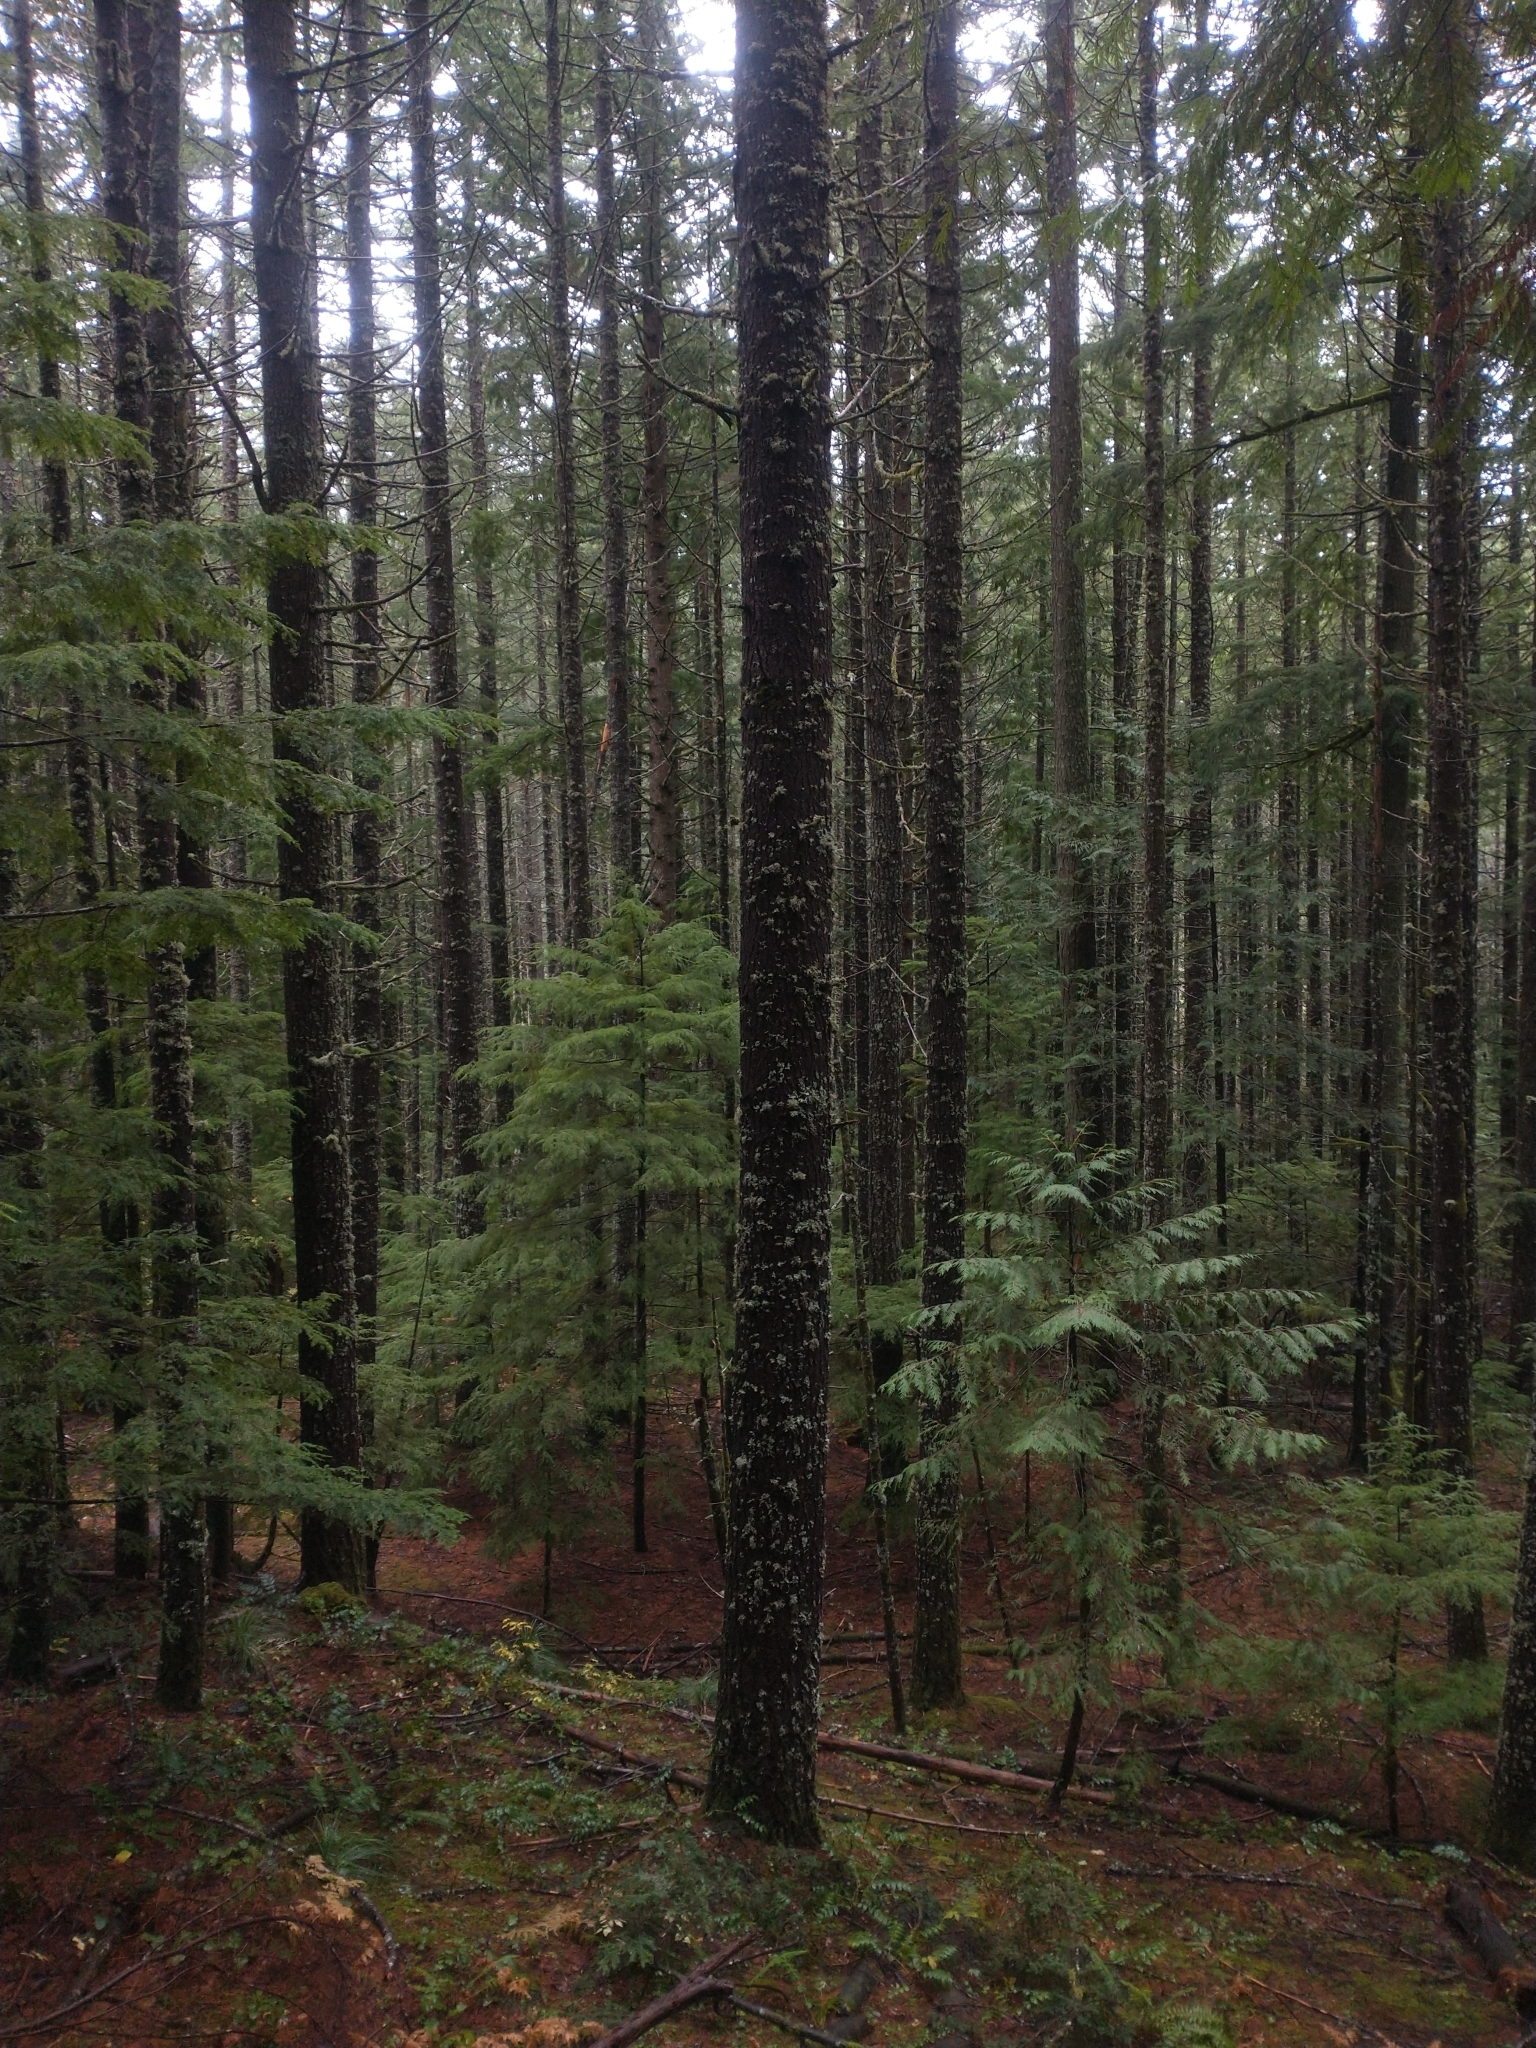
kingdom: Plantae
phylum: Tracheophyta
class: Pinopsida
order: Pinales
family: Cupressaceae
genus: Thuja
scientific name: Thuja plicata
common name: Western red-cedar
